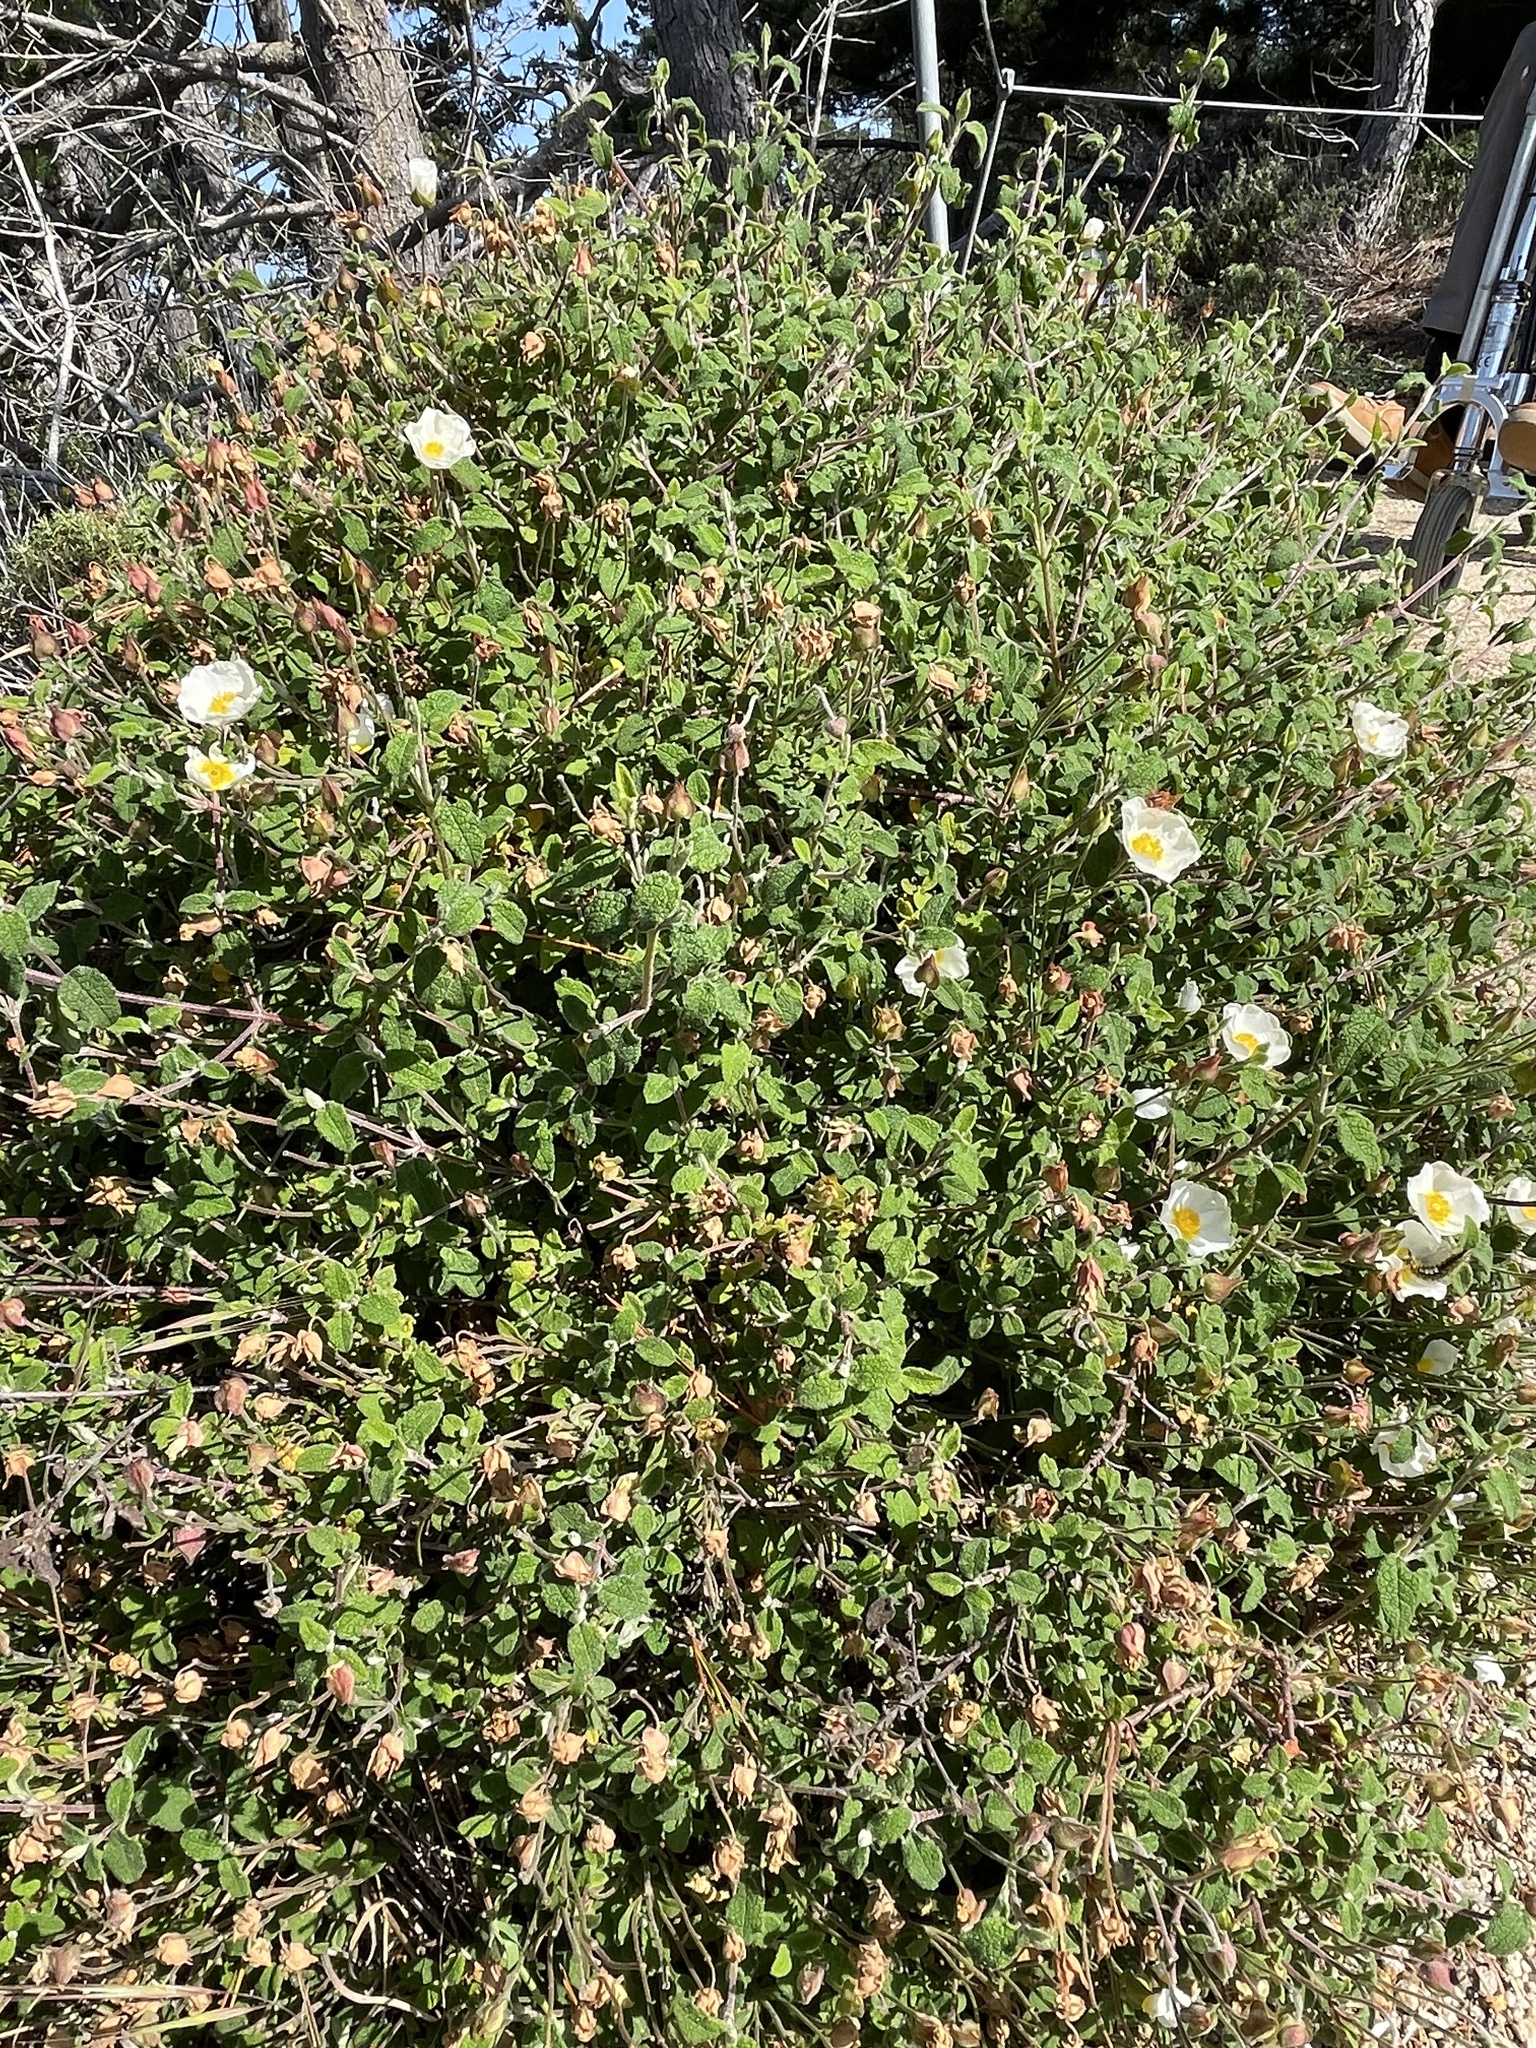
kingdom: Plantae
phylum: Tracheophyta
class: Magnoliopsida
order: Malvales
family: Cistaceae
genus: Cistus
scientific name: Cistus salviifolius
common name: Salvia cistus
